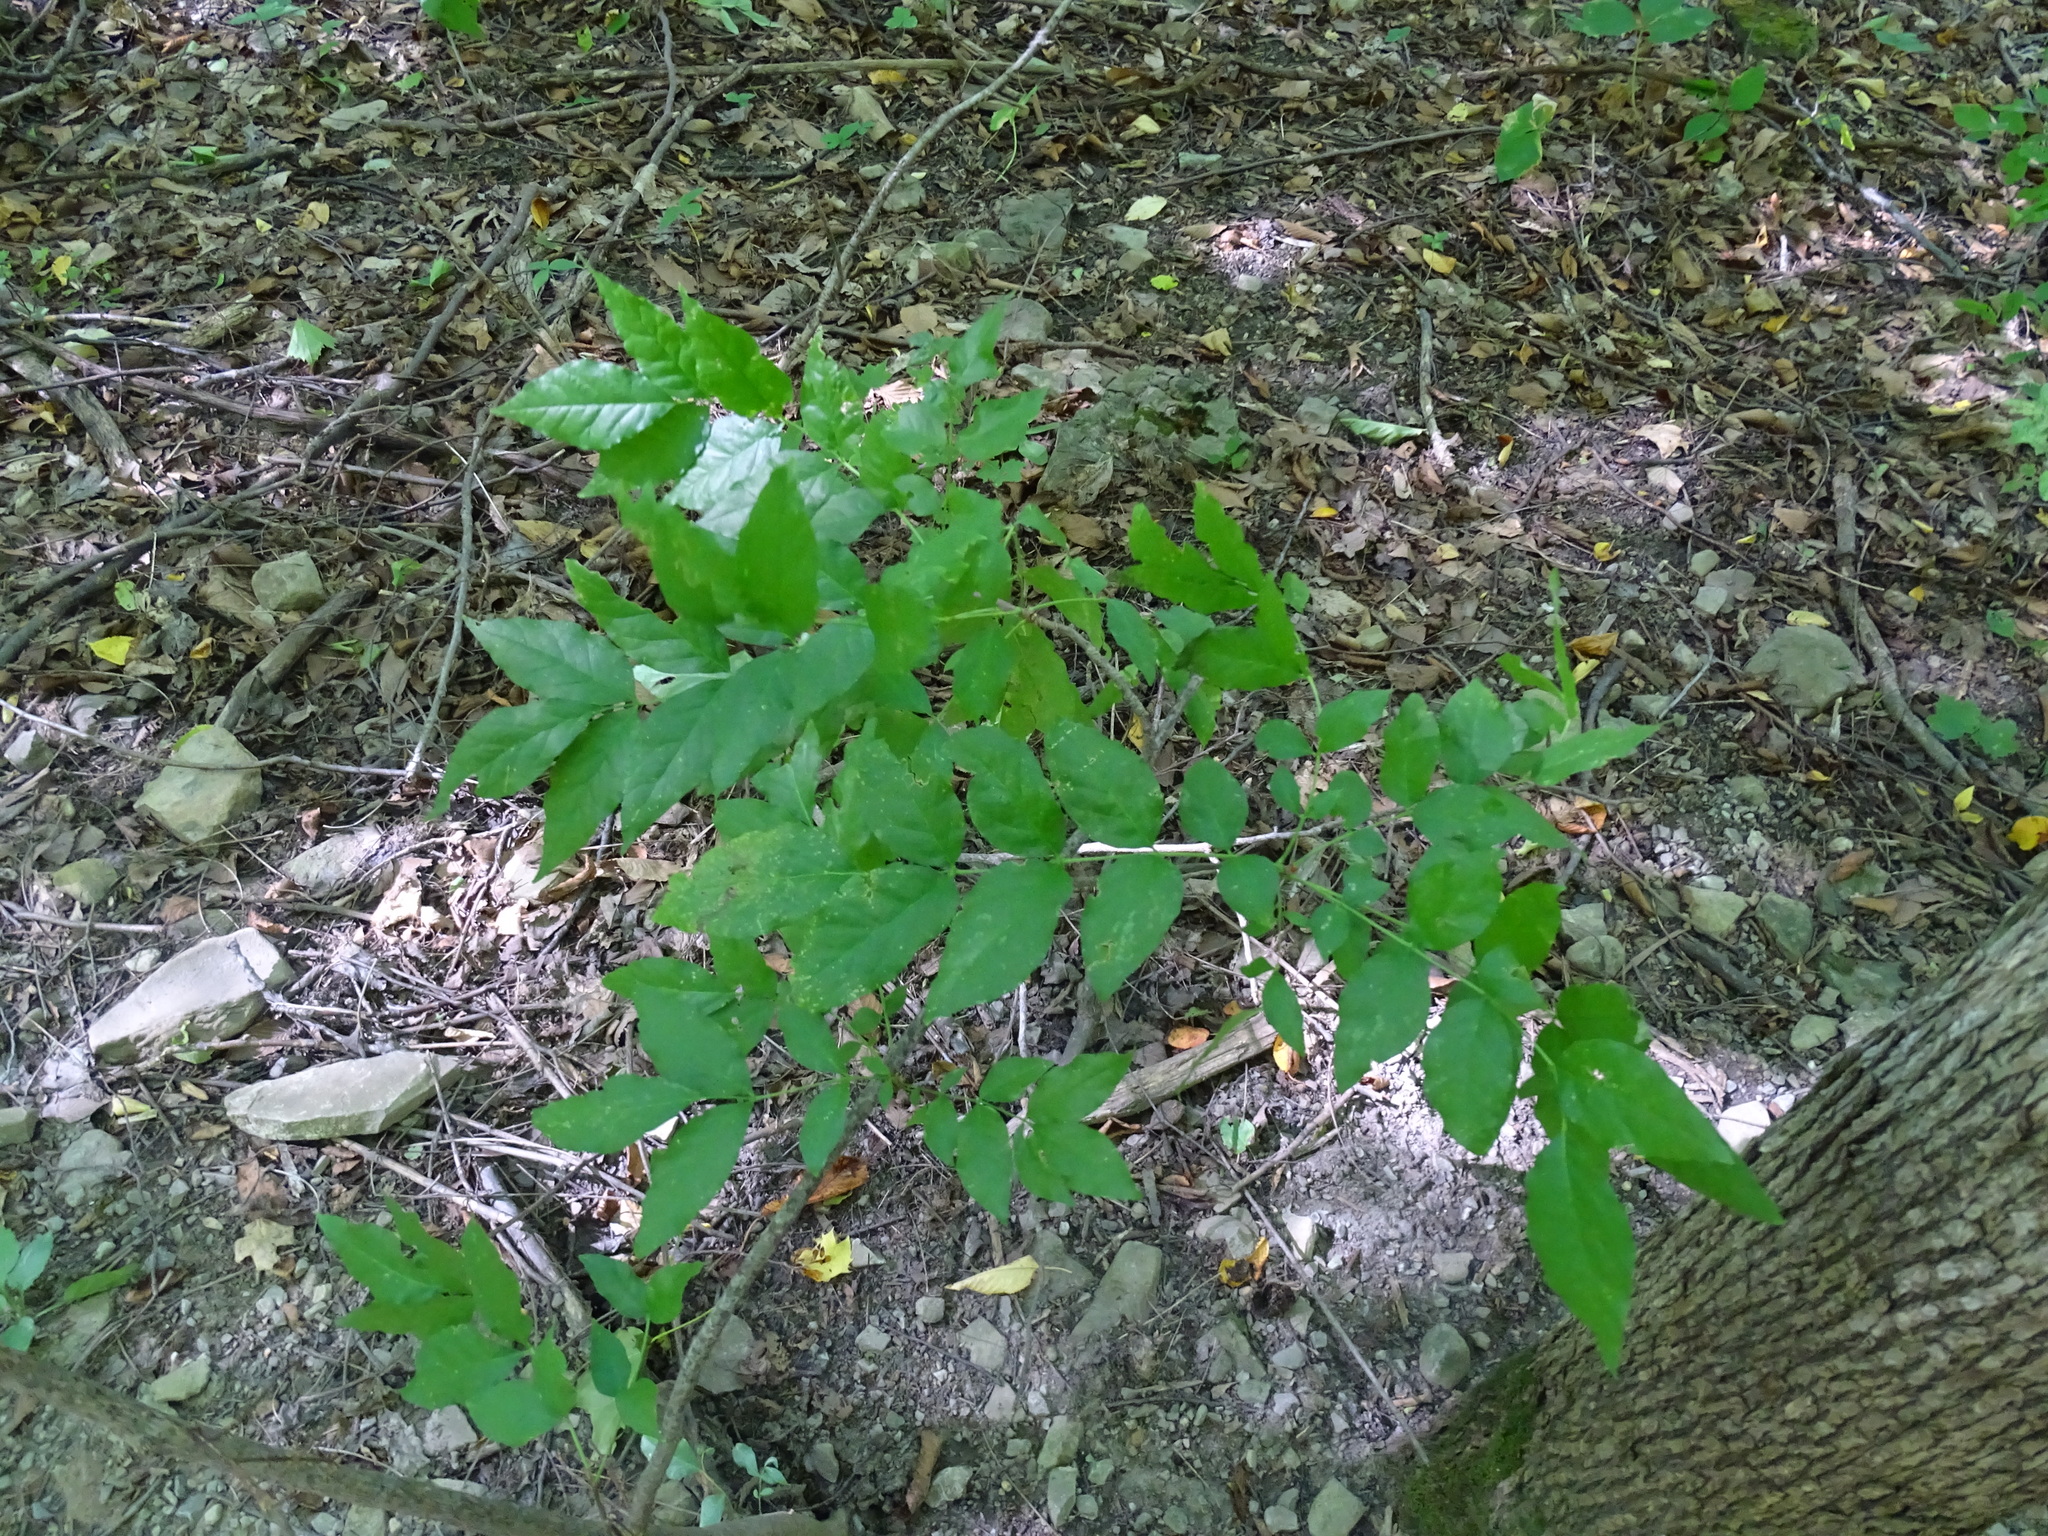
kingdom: Plantae
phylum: Tracheophyta
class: Magnoliopsida
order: Sapindales
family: Rutaceae
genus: Zanthoxylum
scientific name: Zanthoxylum americanum
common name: Northern prickly-ash
